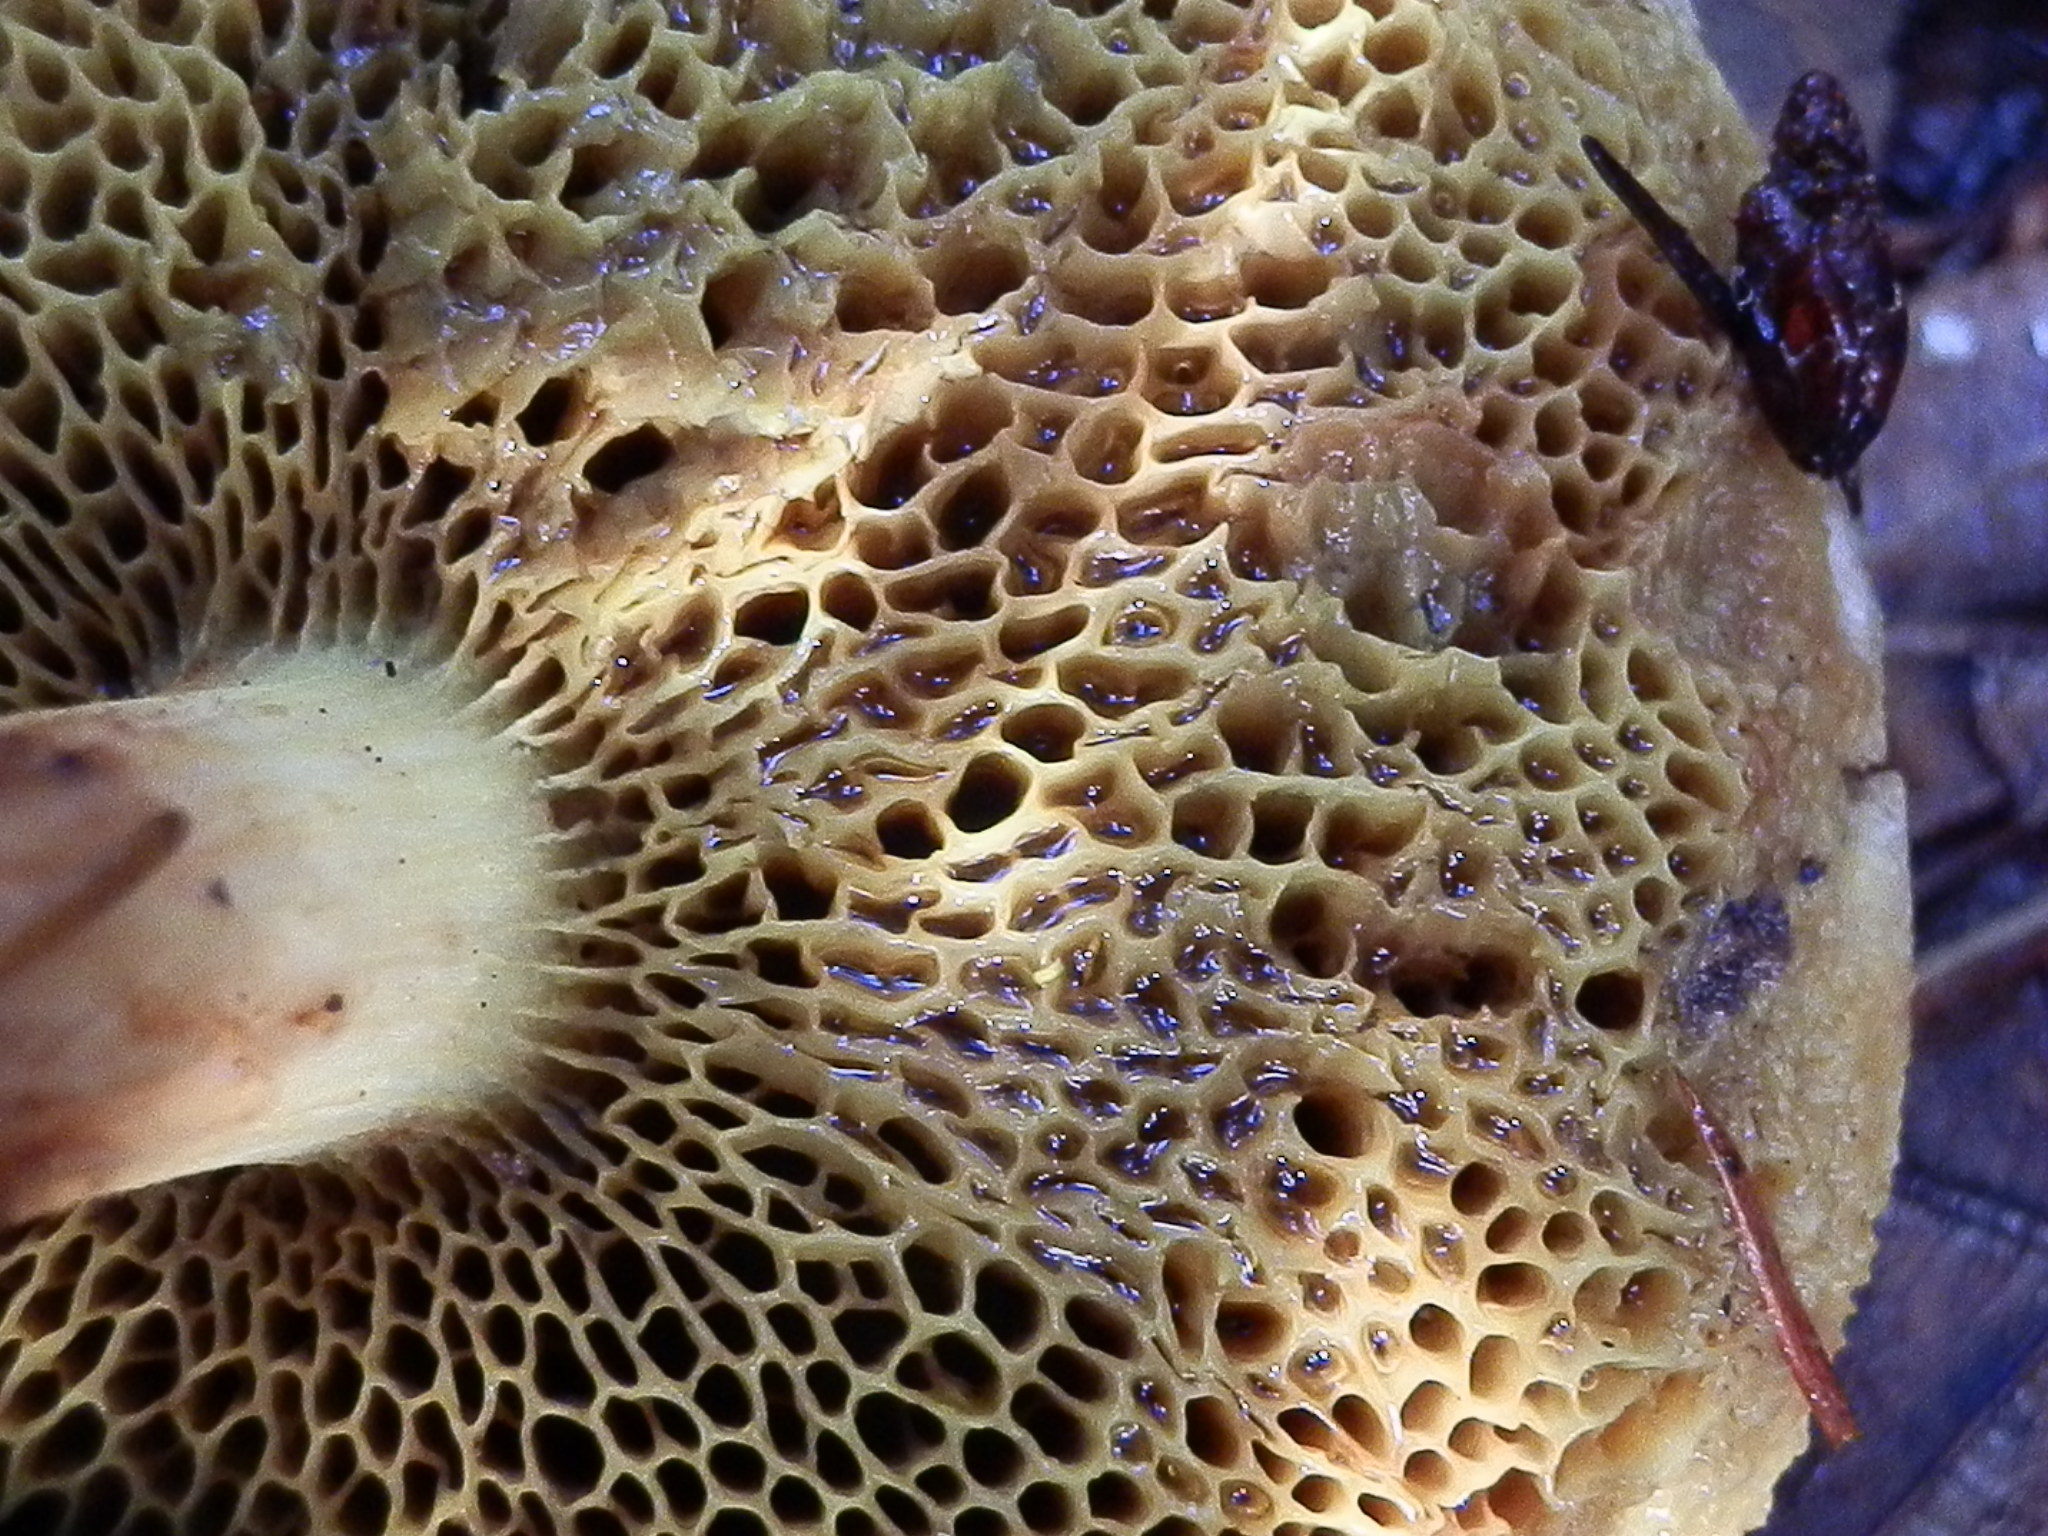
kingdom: Fungi
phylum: Basidiomycota
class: Agaricomycetes
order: Boletales
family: Boletaceae
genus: Xerocomus
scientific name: Xerocomus subtomentosus
